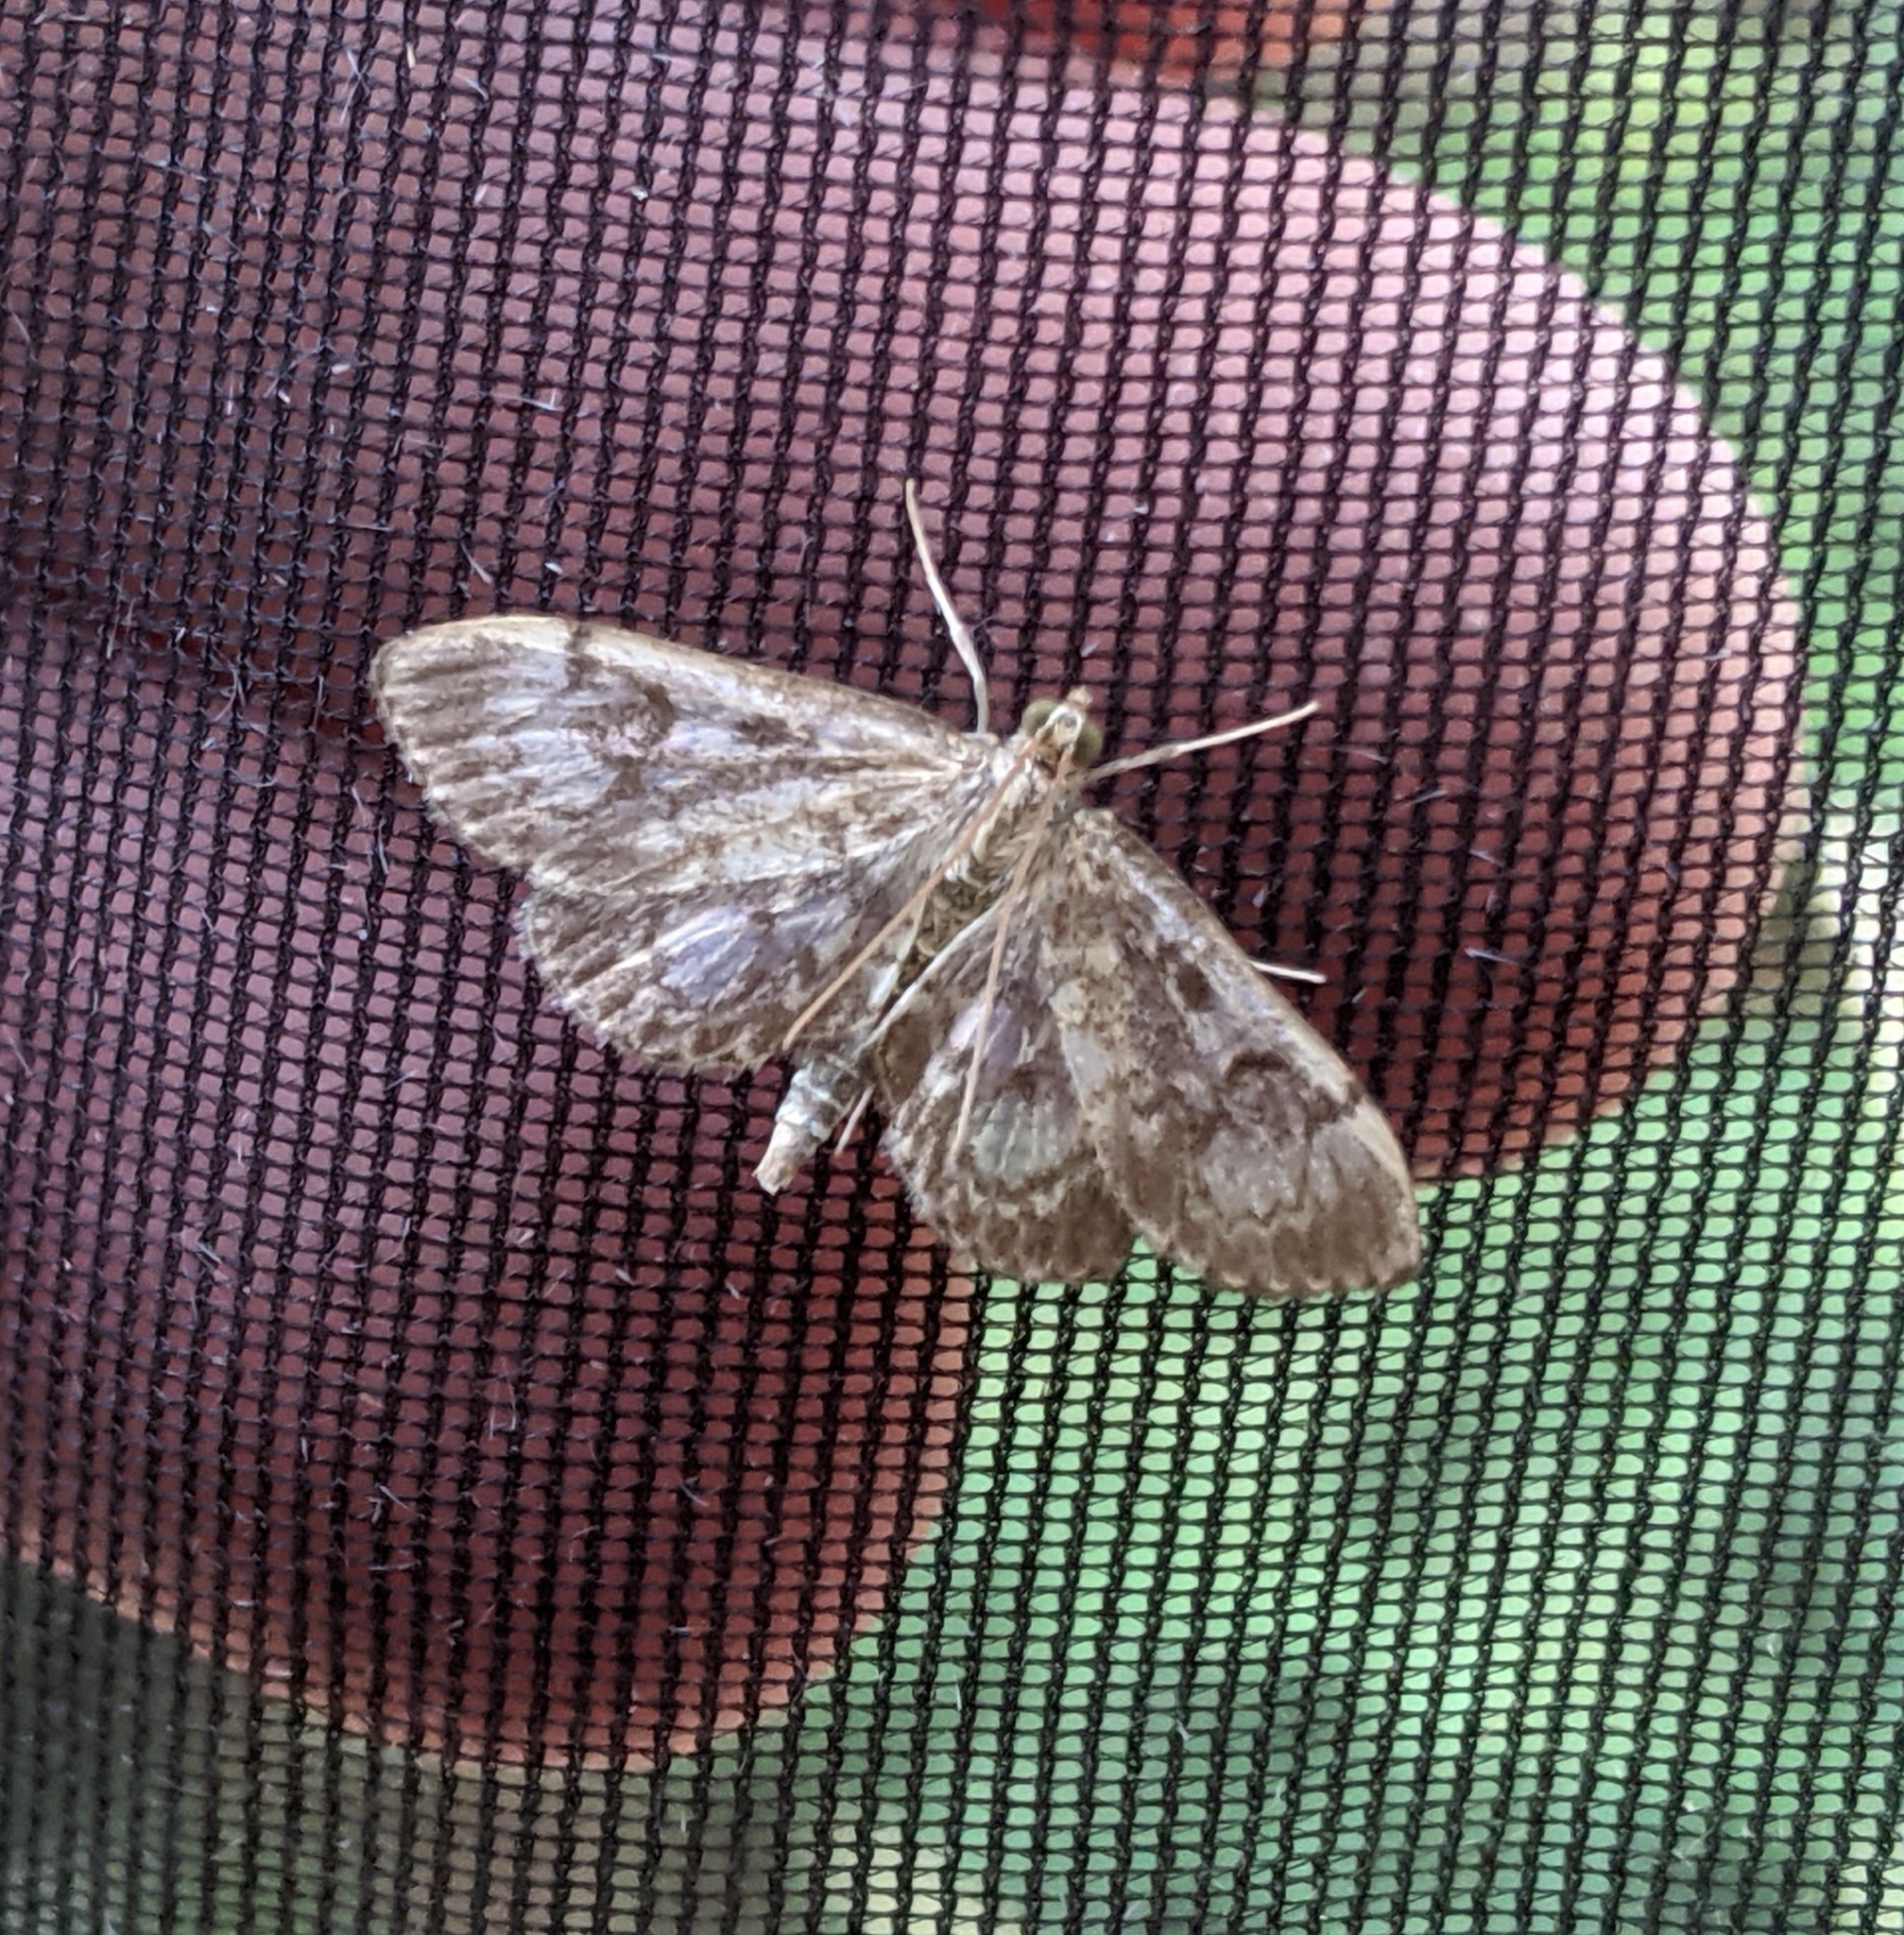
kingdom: Animalia
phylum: Arthropoda
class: Insecta
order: Lepidoptera
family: Crambidae
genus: Anania
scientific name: Anania tertialis
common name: Crowned phylctaenia moth
